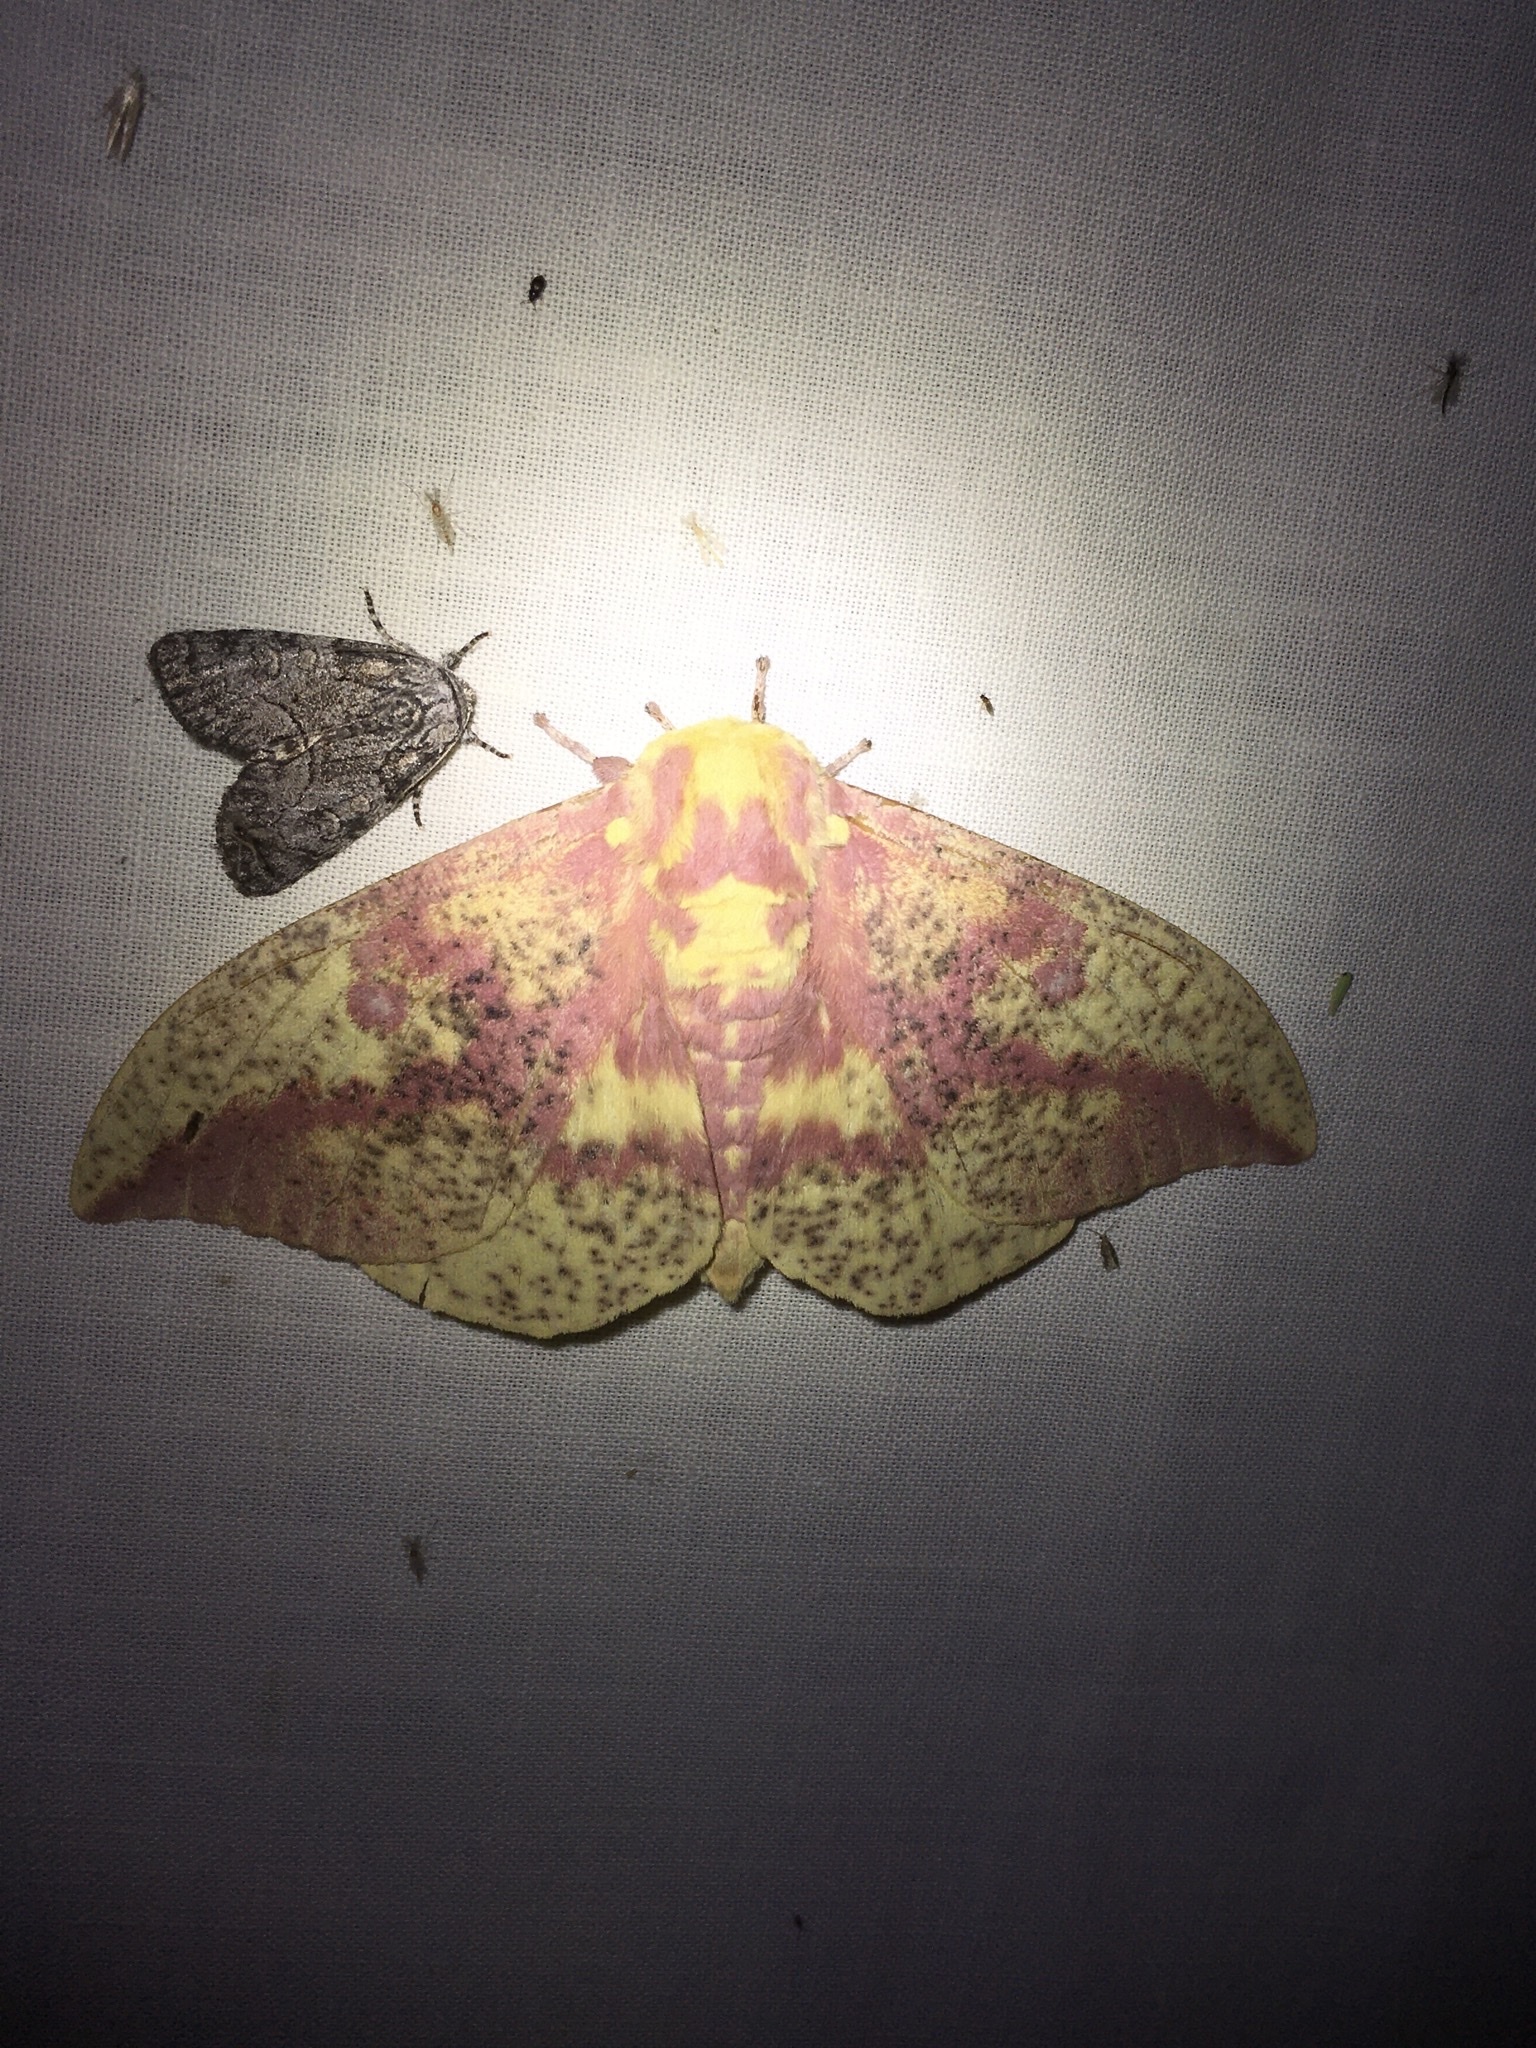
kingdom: Animalia
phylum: Arthropoda
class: Insecta
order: Lepidoptera
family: Saturniidae
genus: Eacles
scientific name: Eacles
